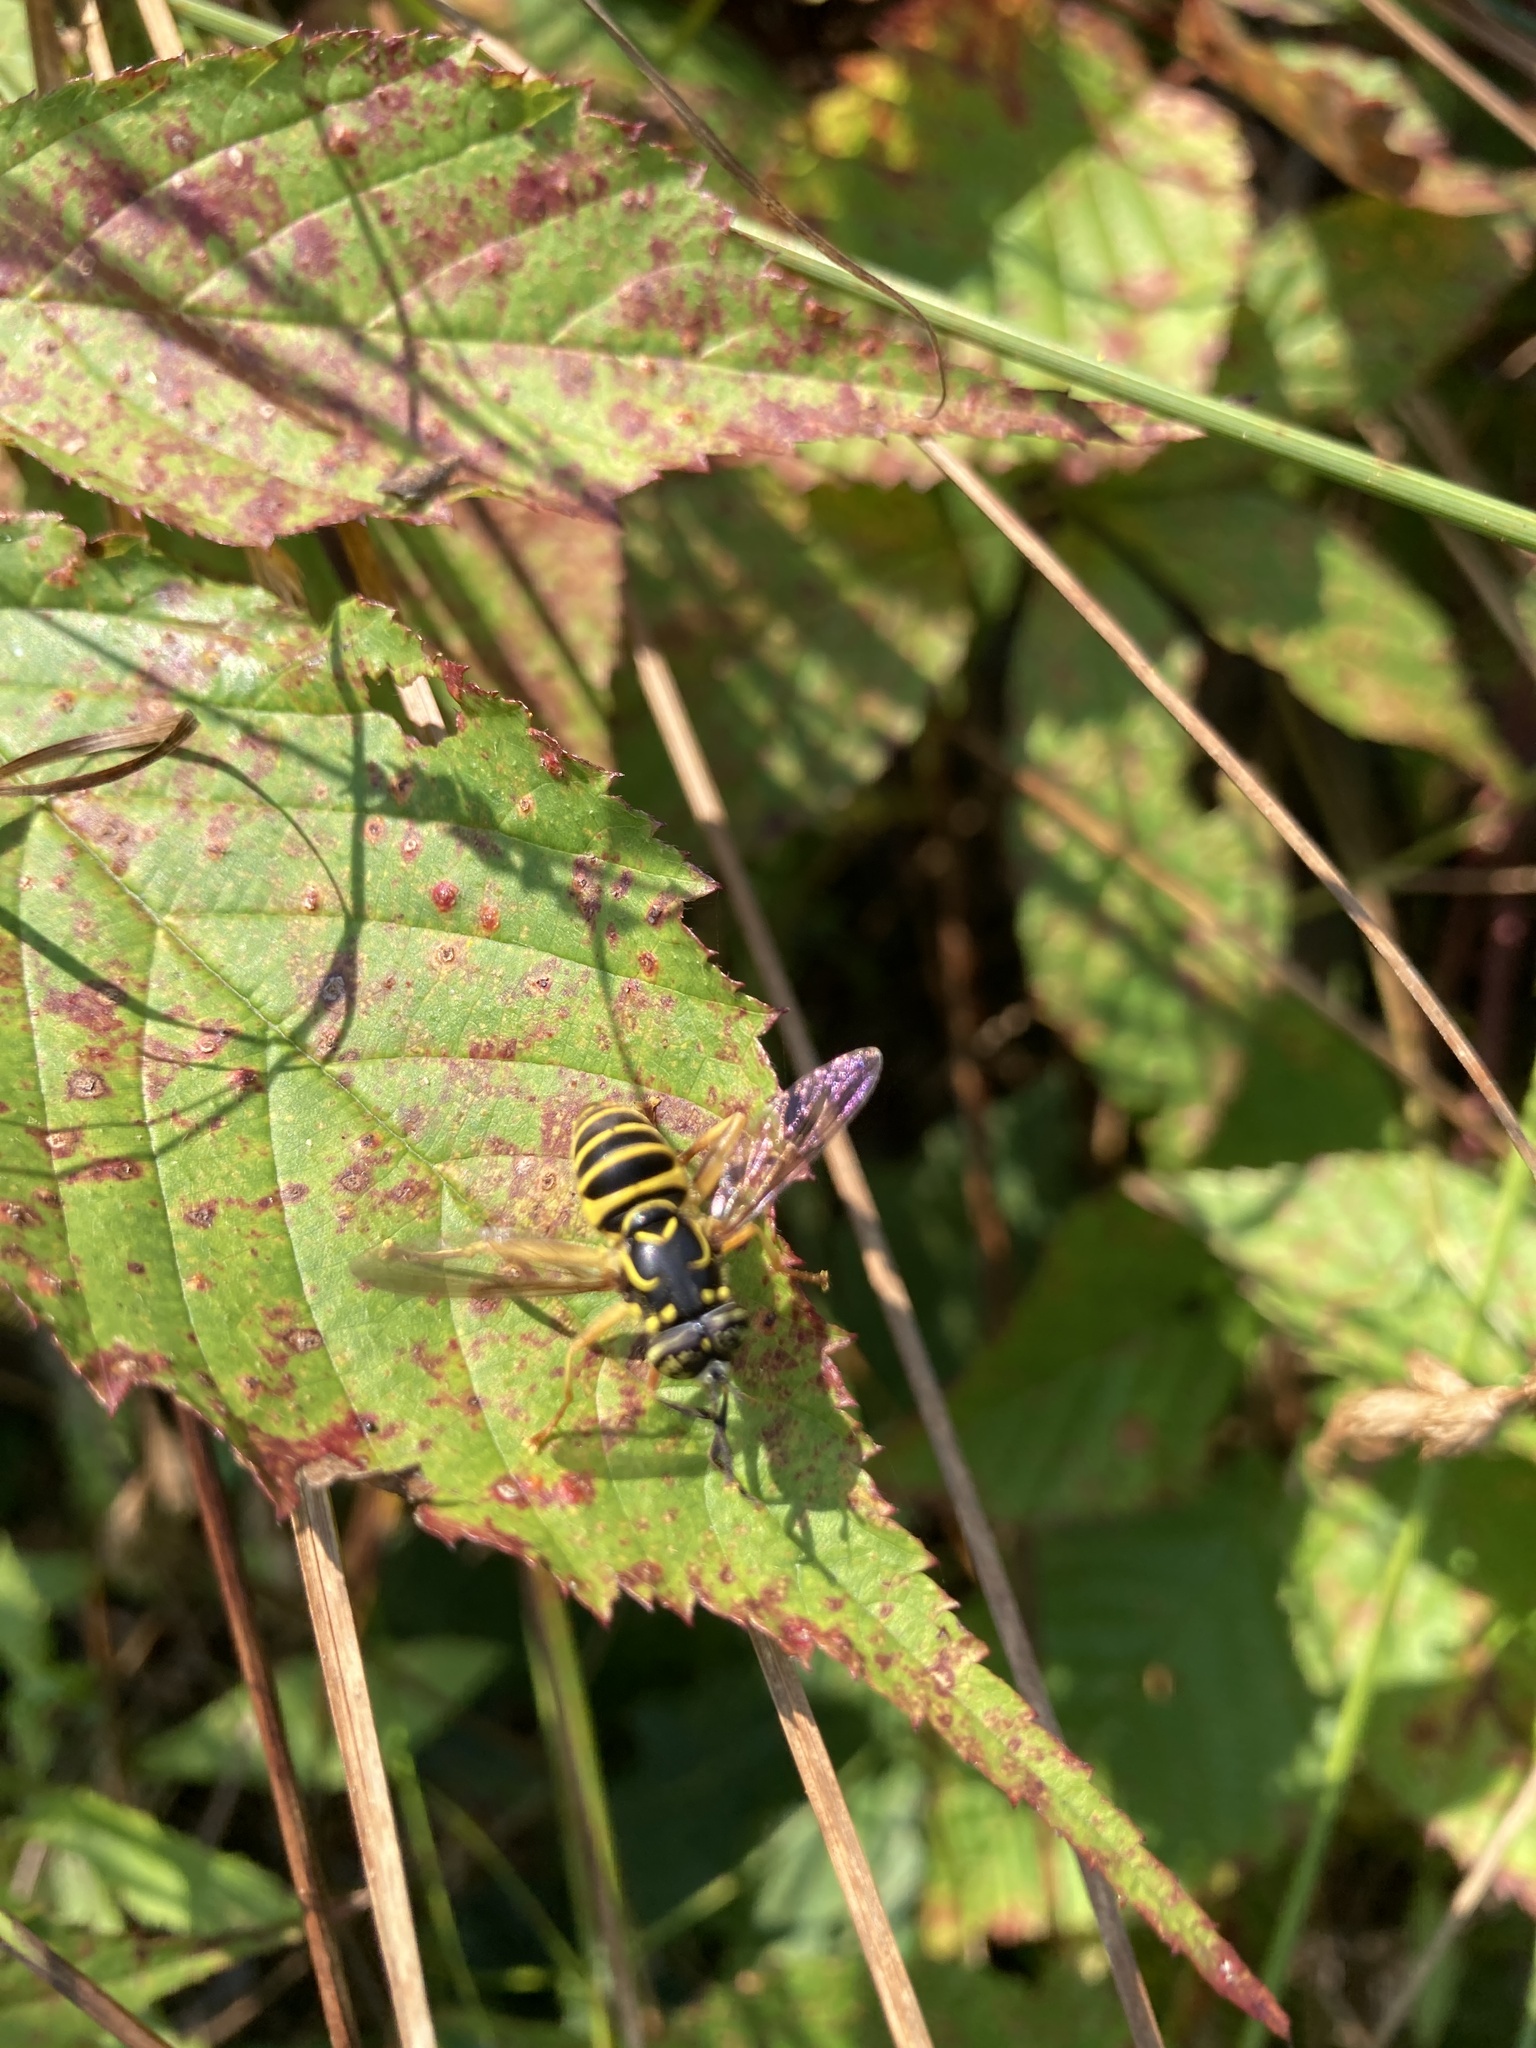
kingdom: Animalia
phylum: Arthropoda
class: Insecta
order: Diptera
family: Syrphidae
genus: Spilomyia
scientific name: Spilomyia longicornis
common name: Eastern hornet fly
